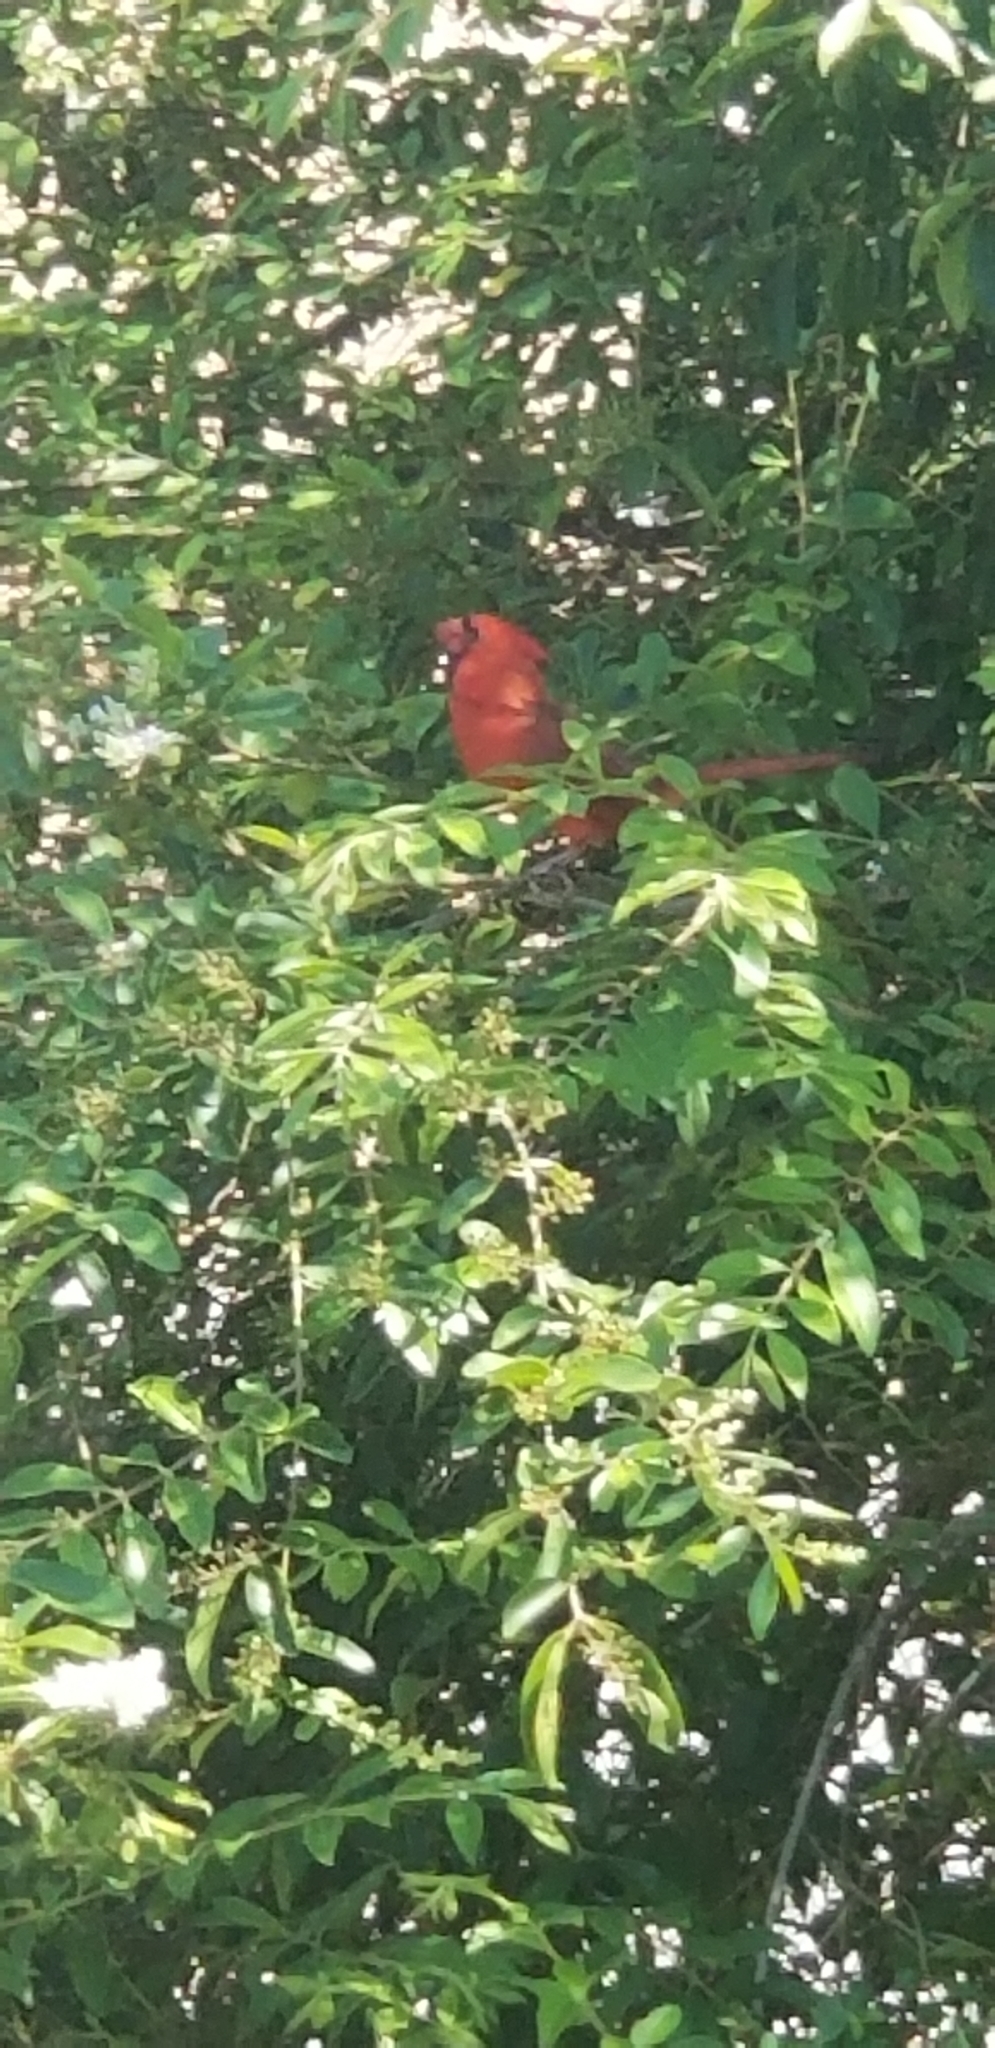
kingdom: Animalia
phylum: Chordata
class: Aves
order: Passeriformes
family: Cardinalidae
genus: Cardinalis
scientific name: Cardinalis cardinalis
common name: Northern cardinal
